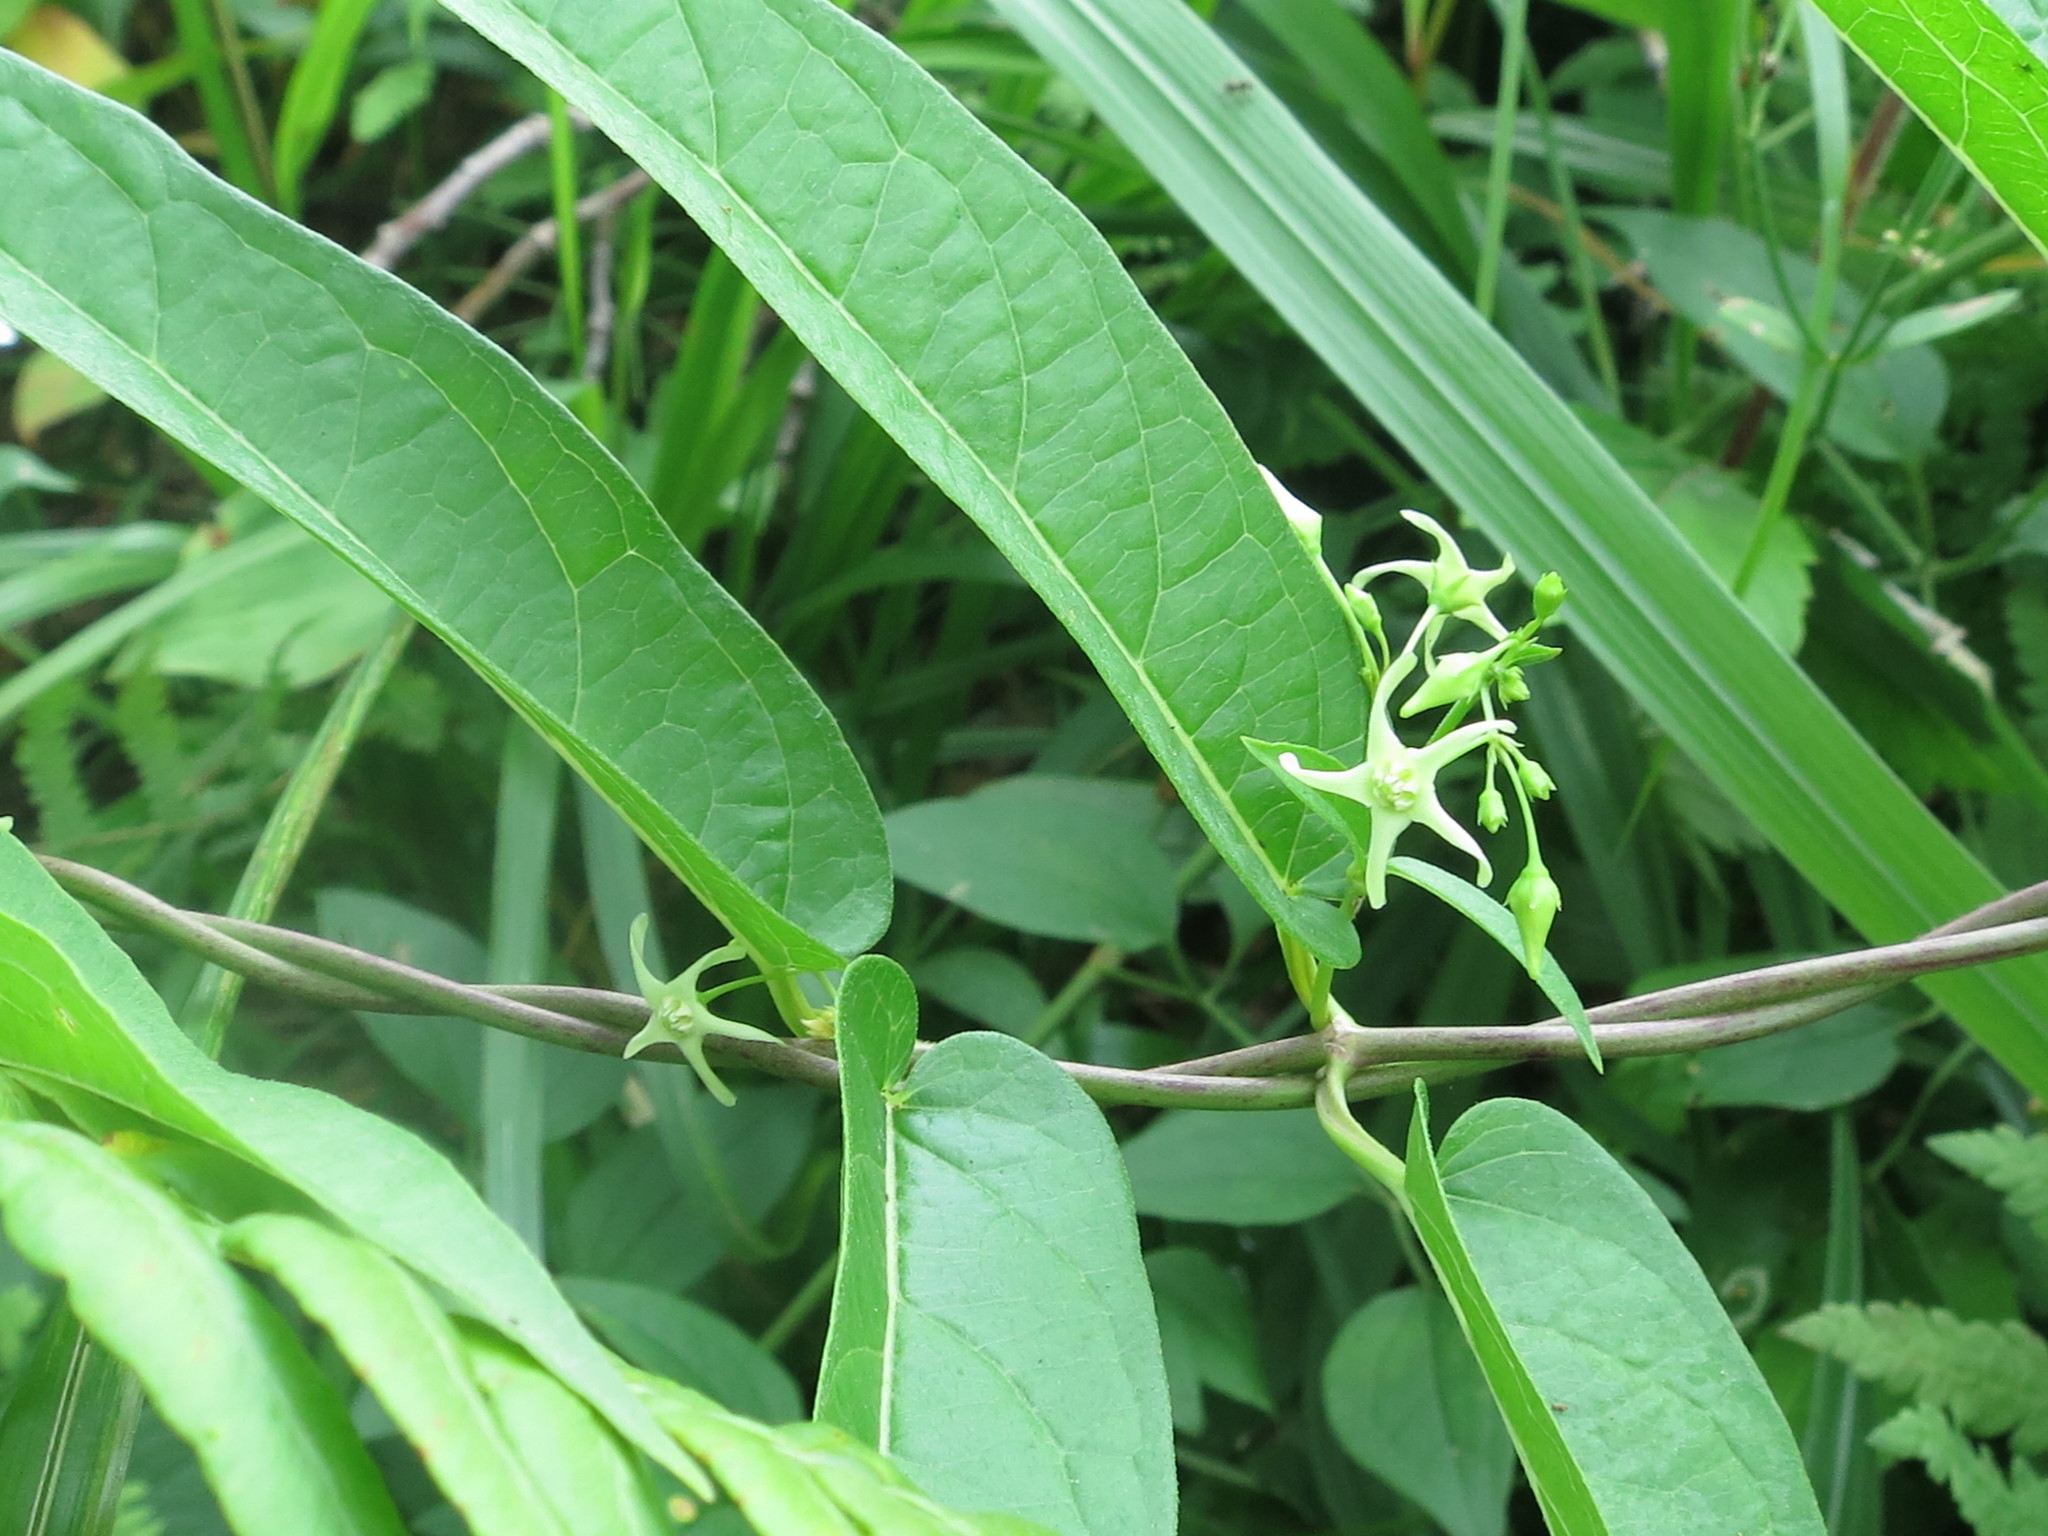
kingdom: Plantae
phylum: Tracheophyta
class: Magnoliopsida
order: Gentianales
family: Apocynaceae
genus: Vincetoxicum
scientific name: Vincetoxicum volubile
